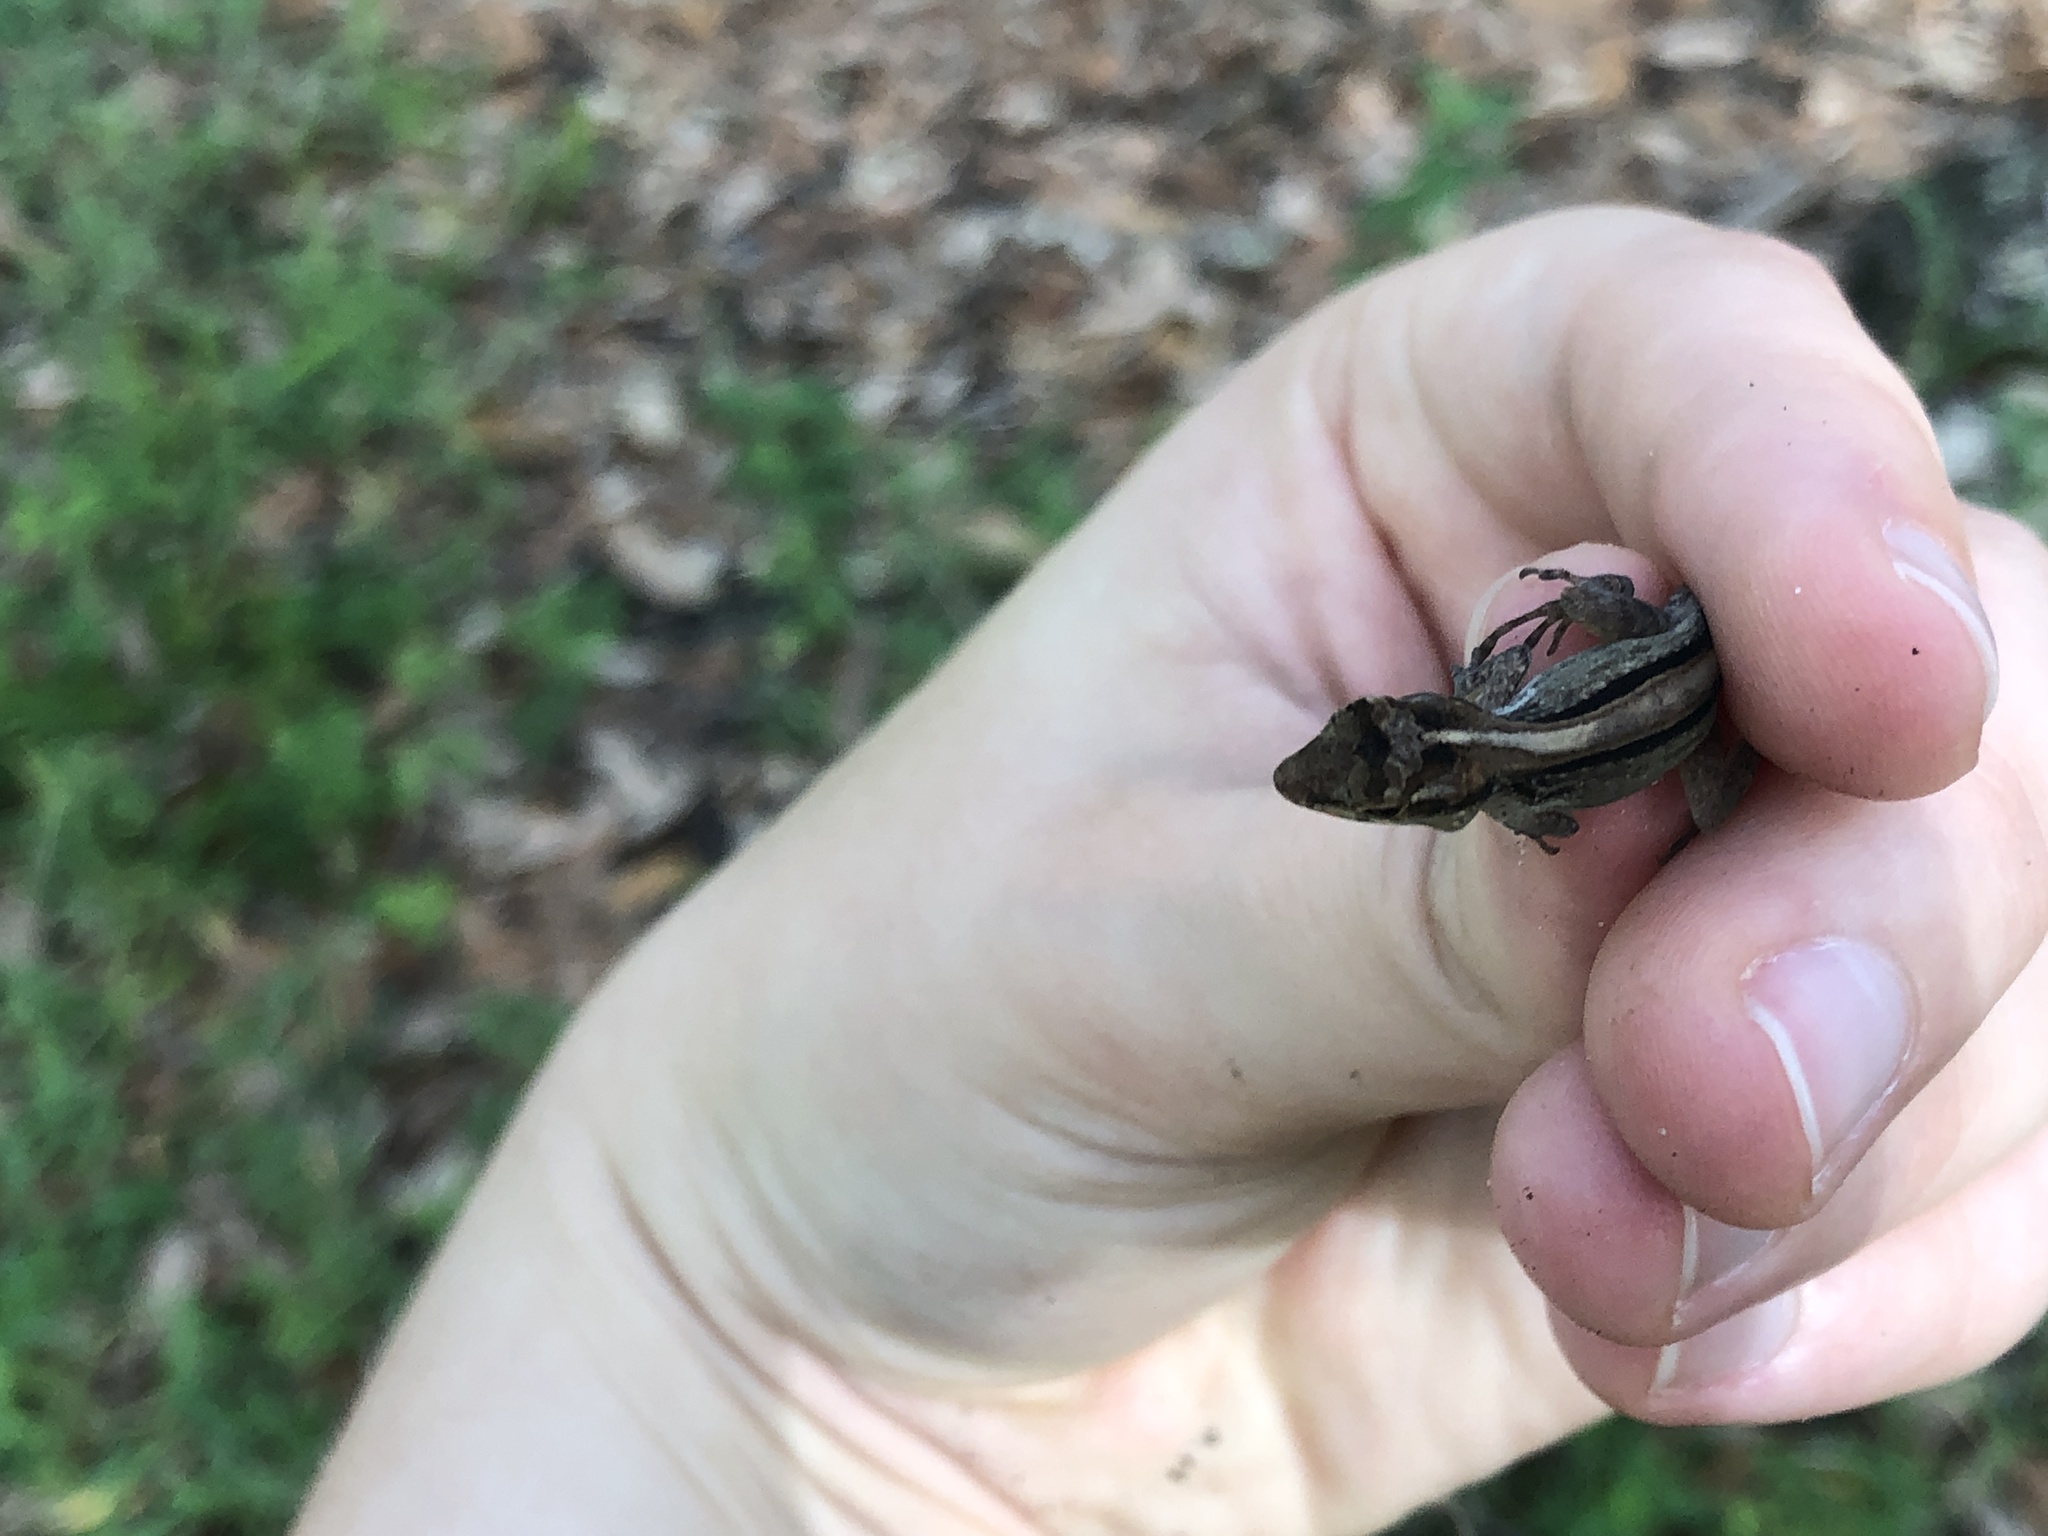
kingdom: Animalia
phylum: Chordata
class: Squamata
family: Dactyloidae
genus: Anolis
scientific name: Anolis cristatellus
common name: Crested anole
